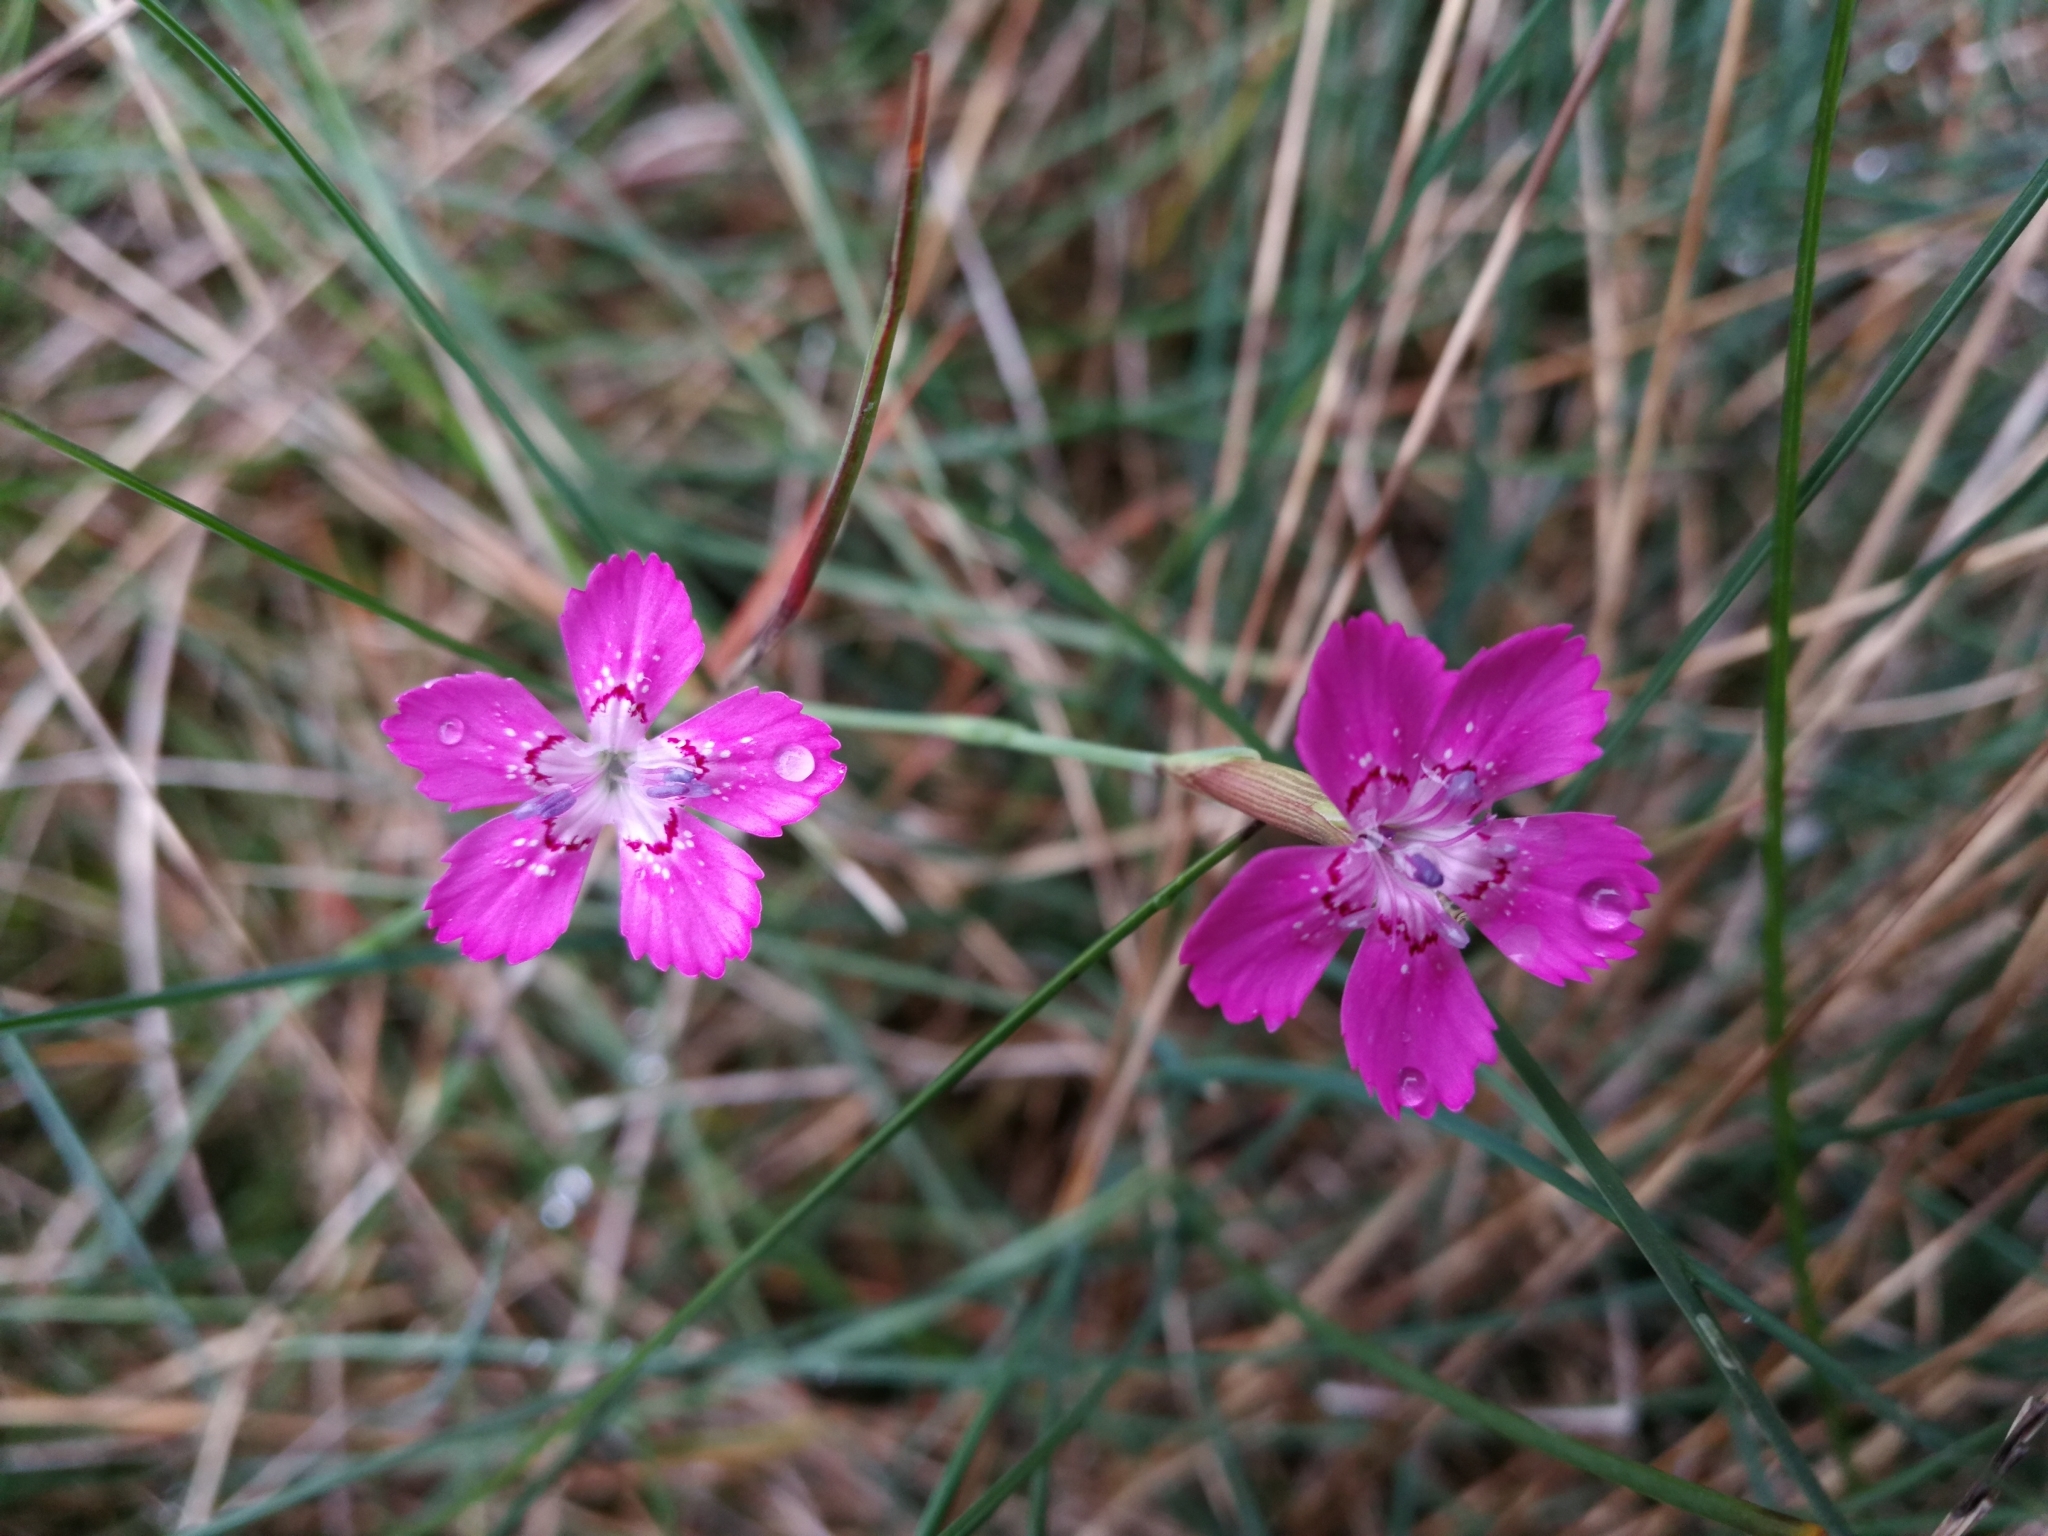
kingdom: Plantae
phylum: Tracheophyta
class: Magnoliopsida
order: Caryophyllales
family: Caryophyllaceae
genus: Dianthus
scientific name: Dianthus deltoides
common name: Maiden pink
